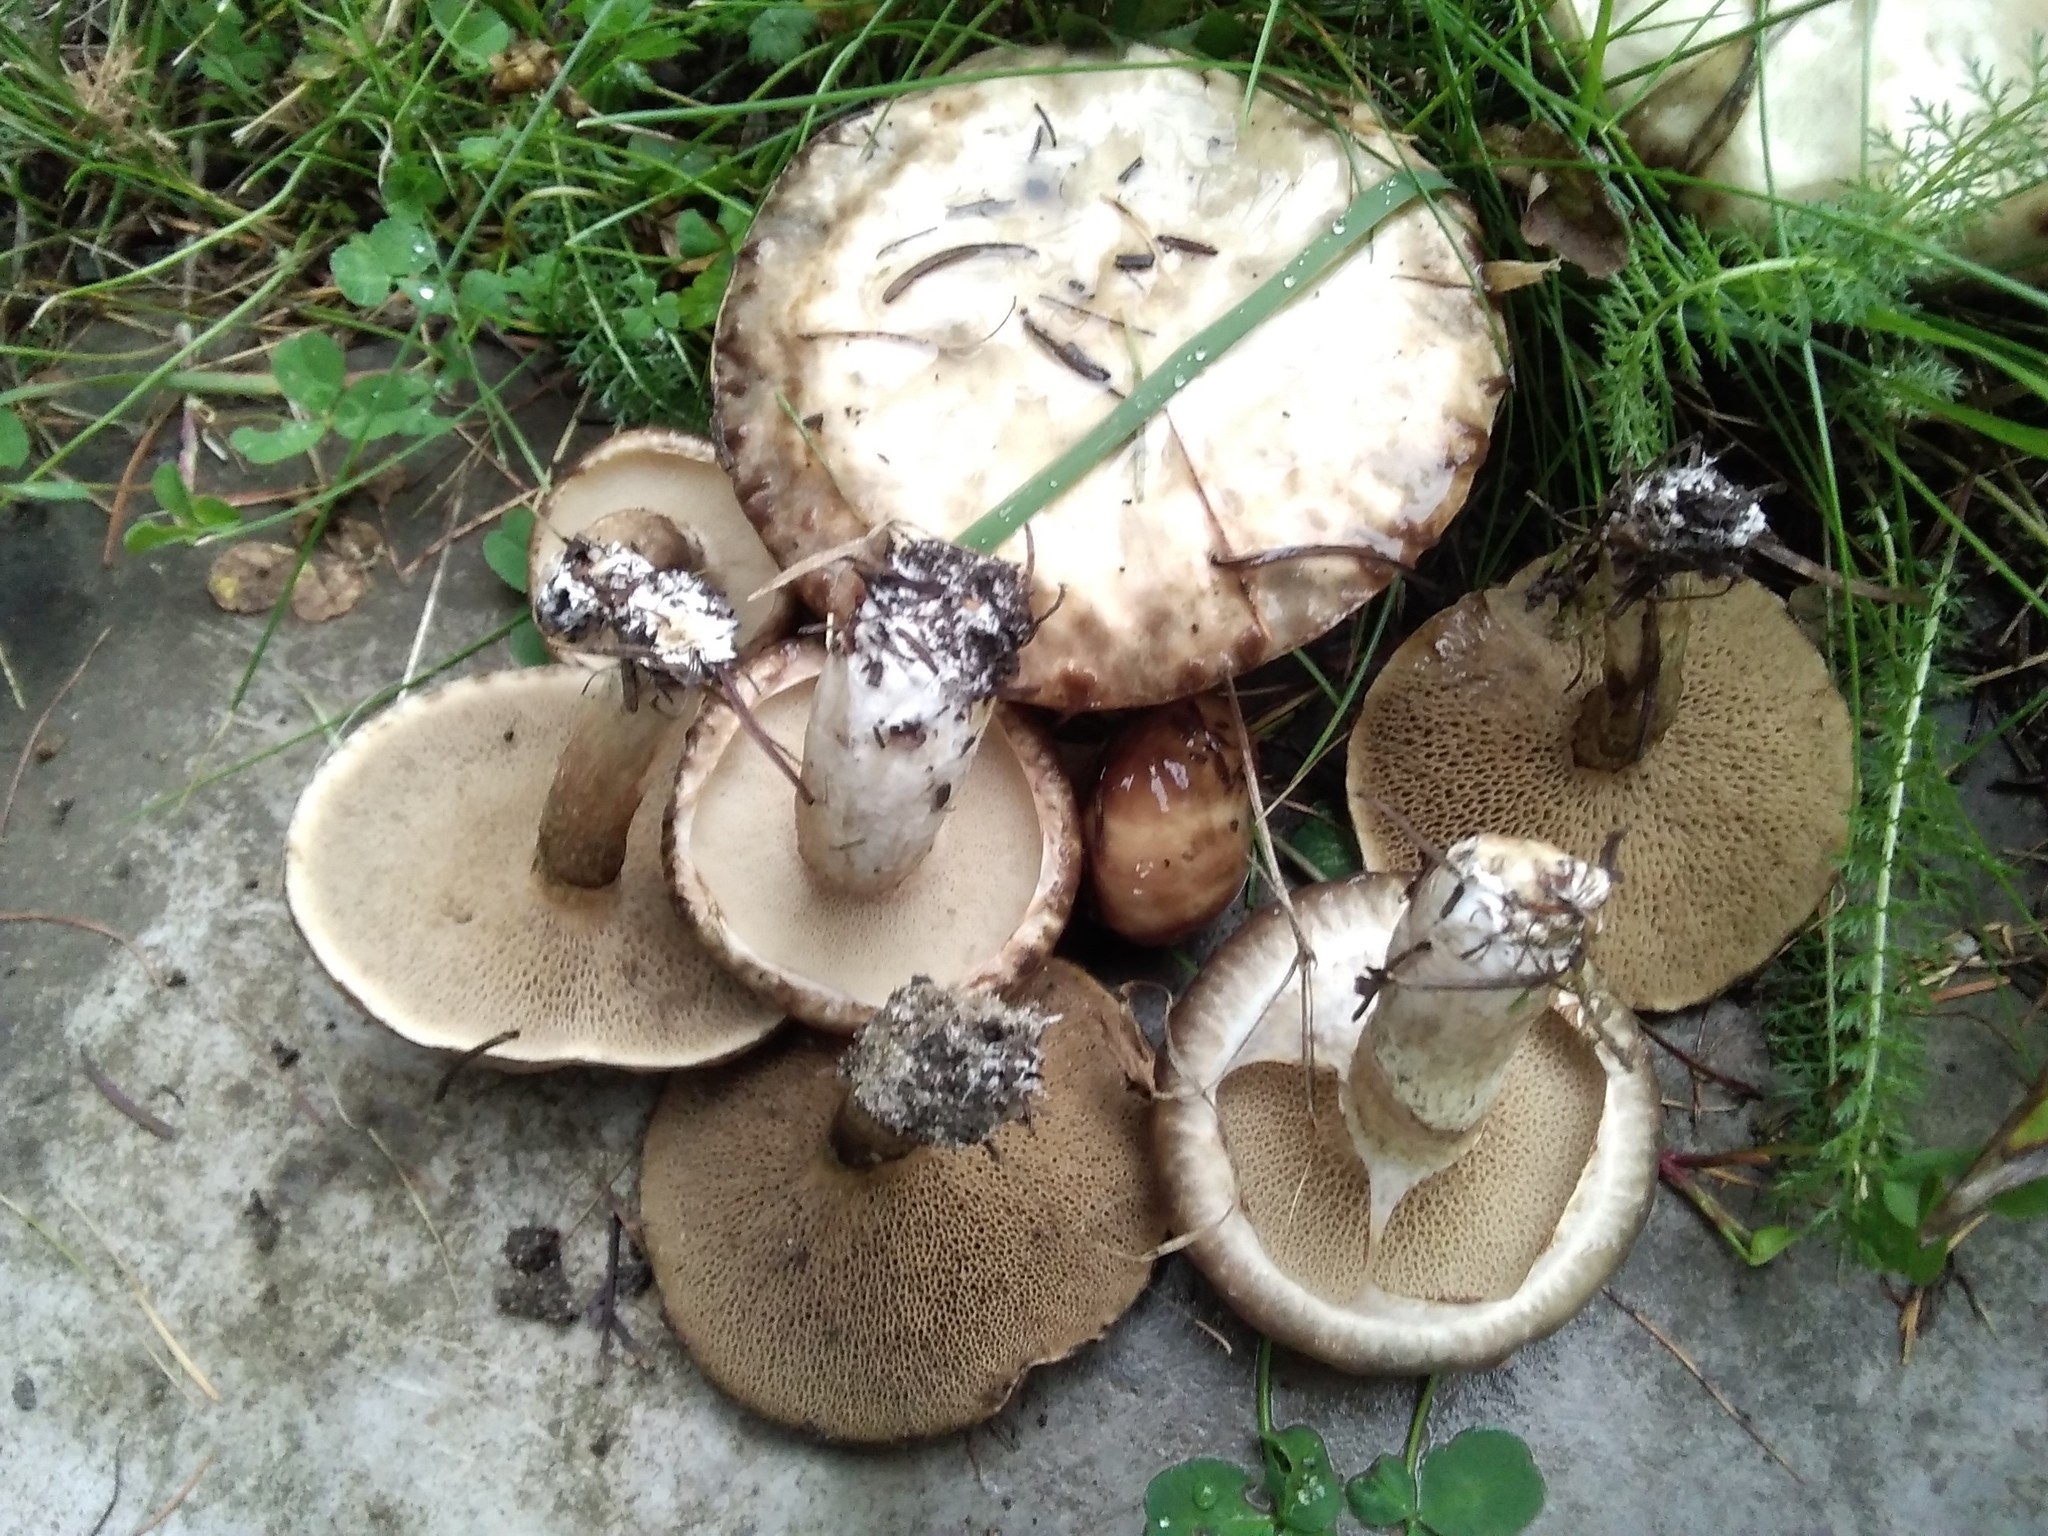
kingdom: Fungi
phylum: Basidiomycota
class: Agaricomycetes
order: Boletales
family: Suillaceae
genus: Suillus
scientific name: Suillus viscidus
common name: Sticky bolete
